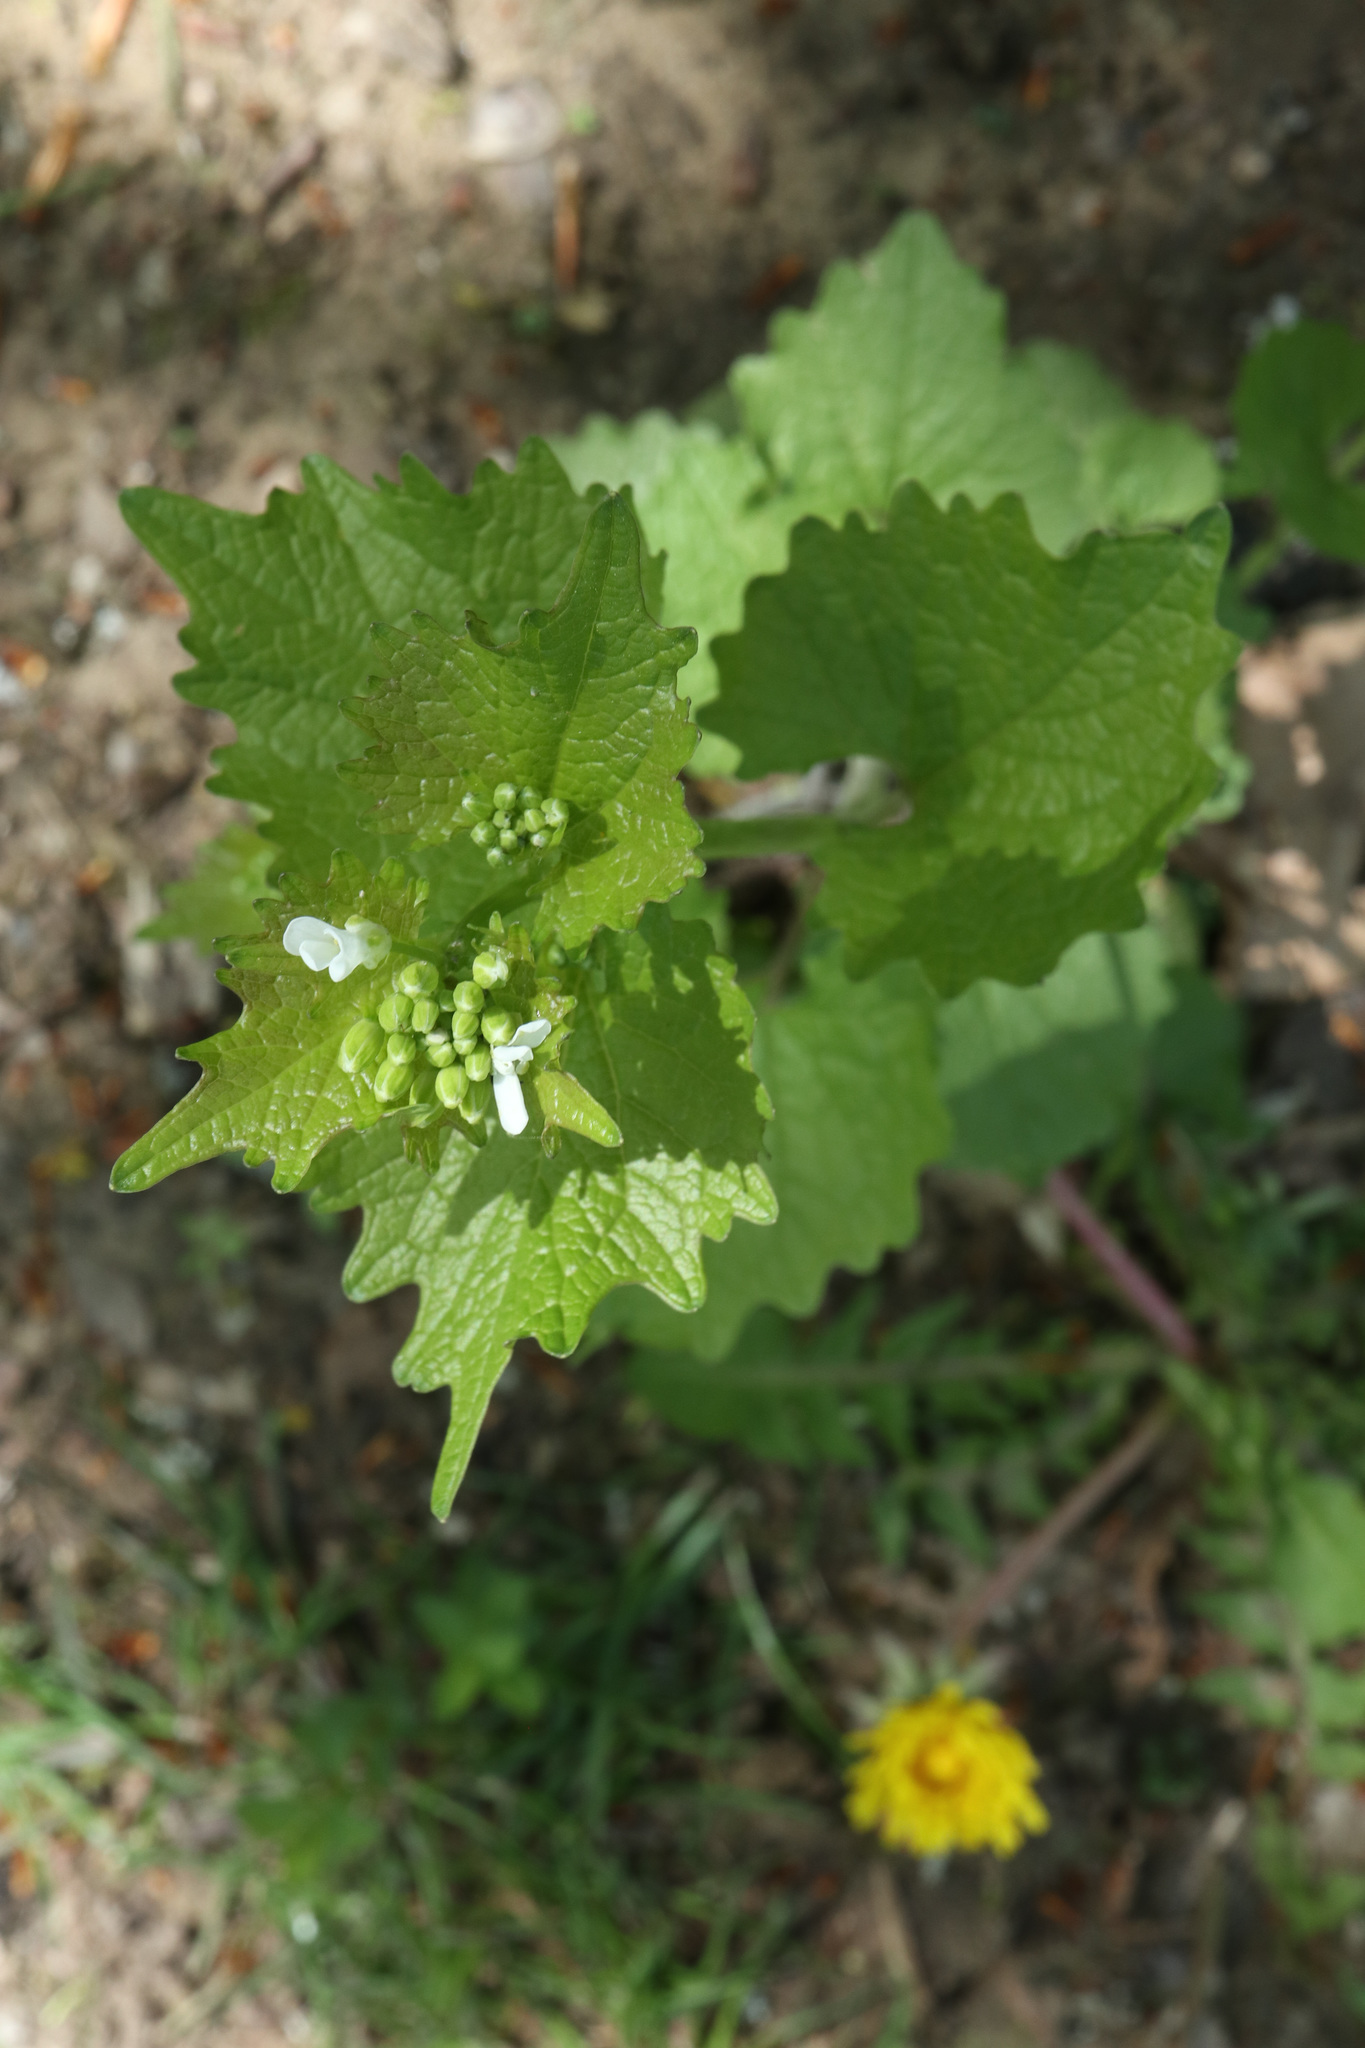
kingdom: Plantae
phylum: Tracheophyta
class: Magnoliopsida
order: Brassicales
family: Brassicaceae
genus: Alliaria
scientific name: Alliaria petiolata
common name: Garlic mustard
